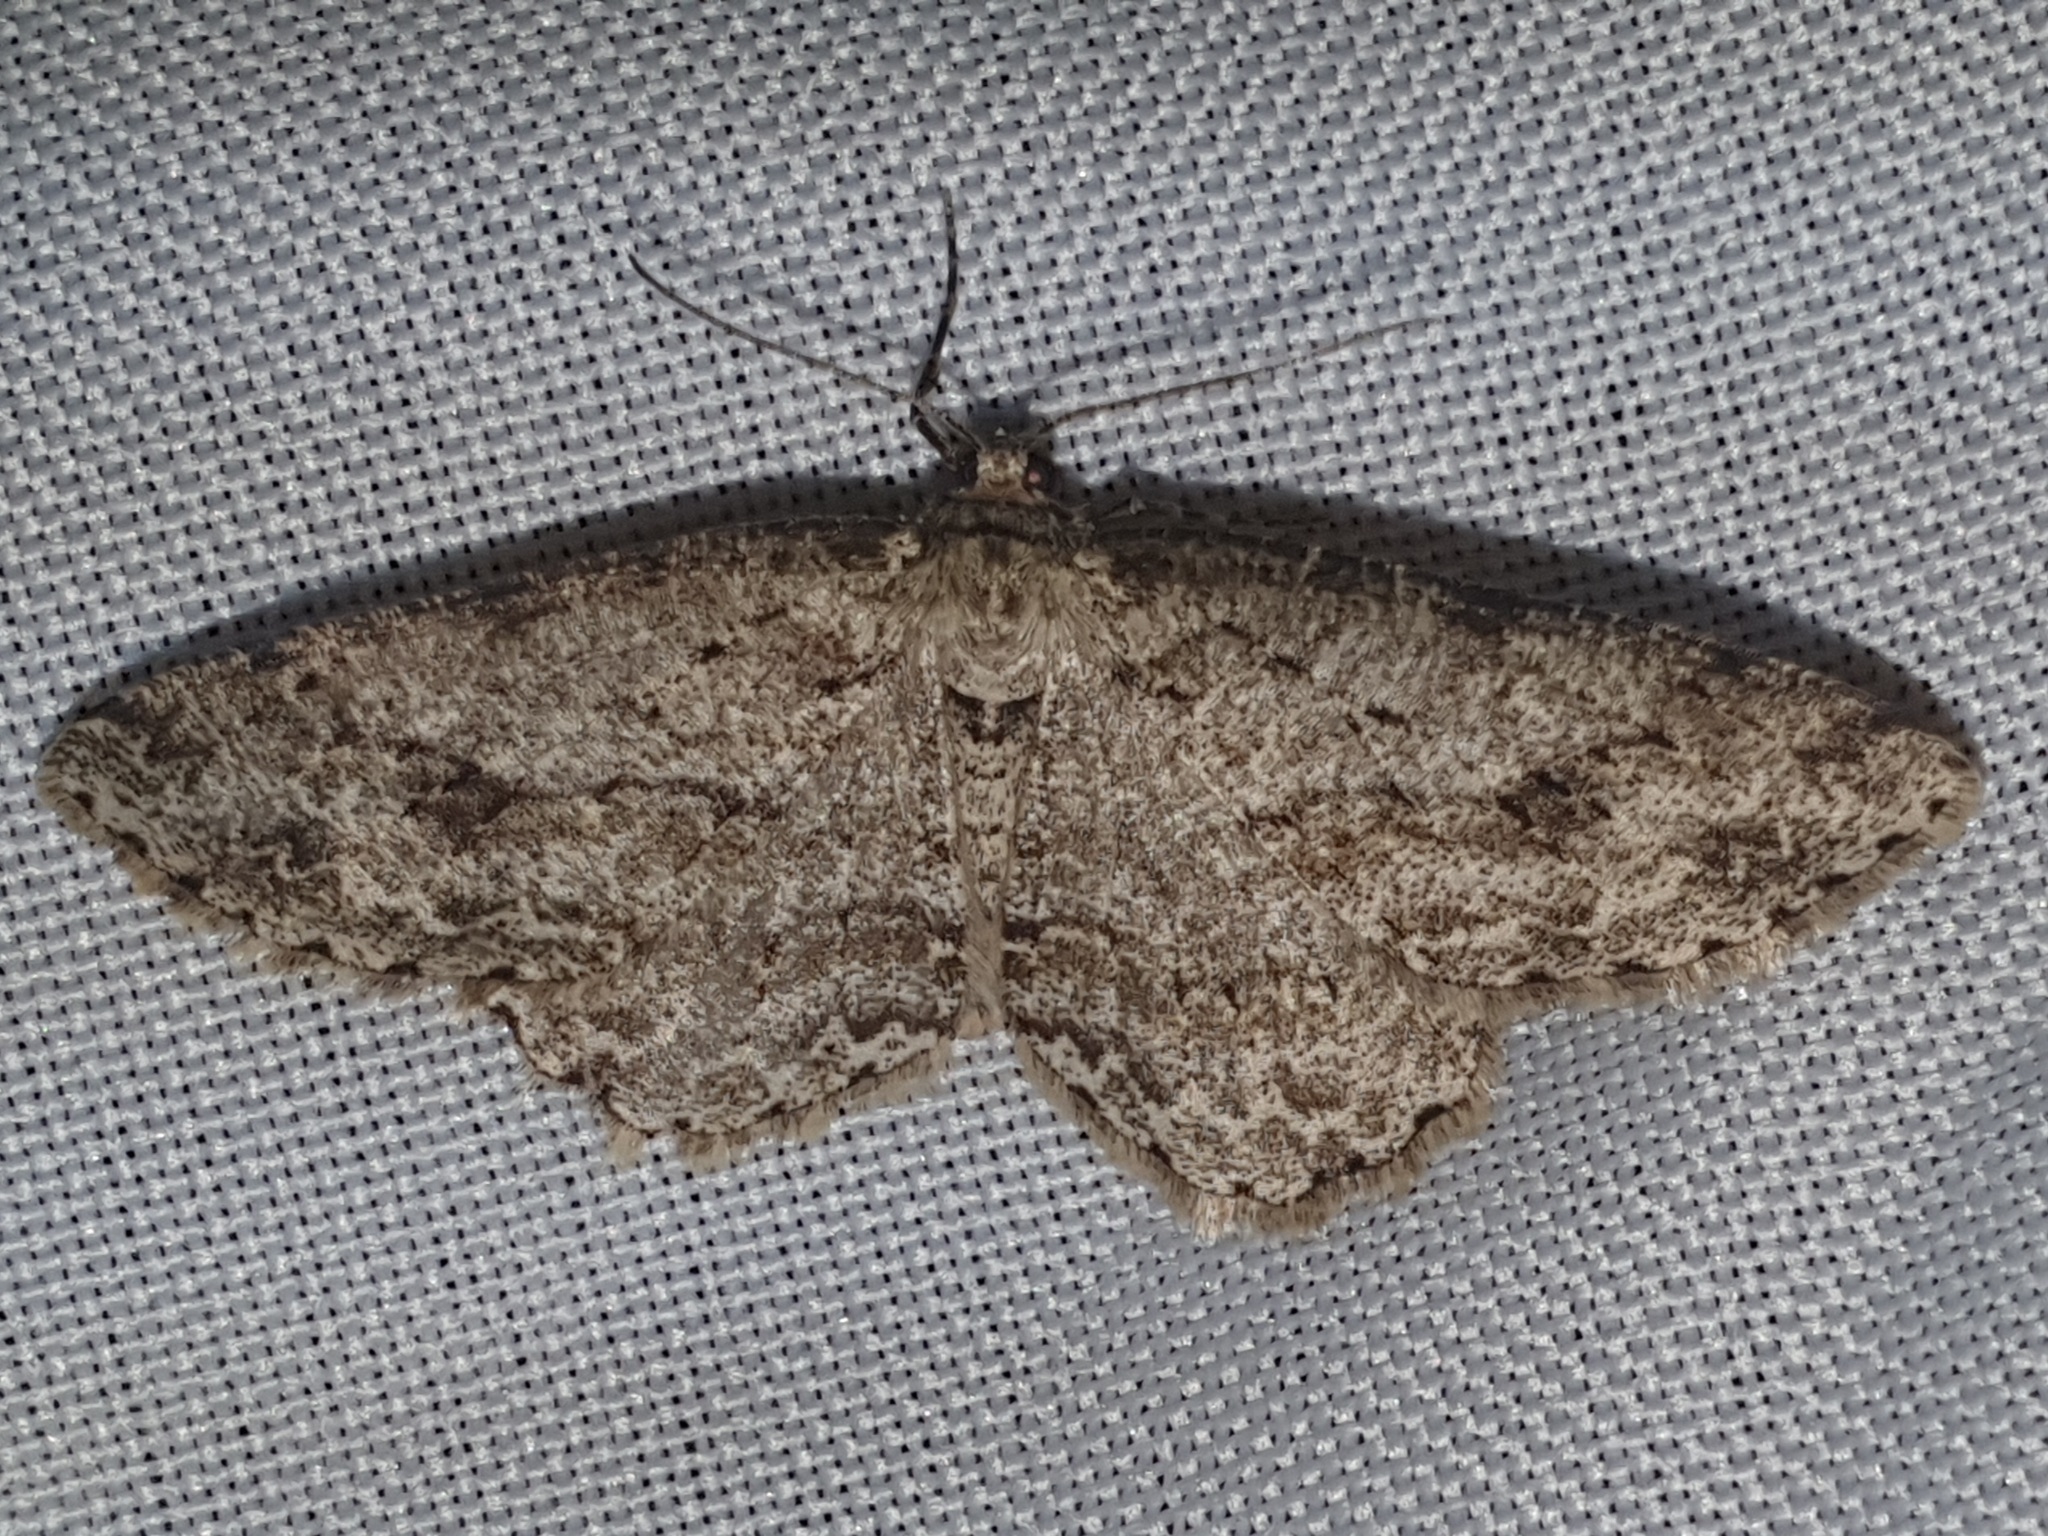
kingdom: Animalia
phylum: Arthropoda
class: Insecta
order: Lepidoptera
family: Geometridae
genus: Ectropis
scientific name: Ectropis crepuscularia
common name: Engrailed
